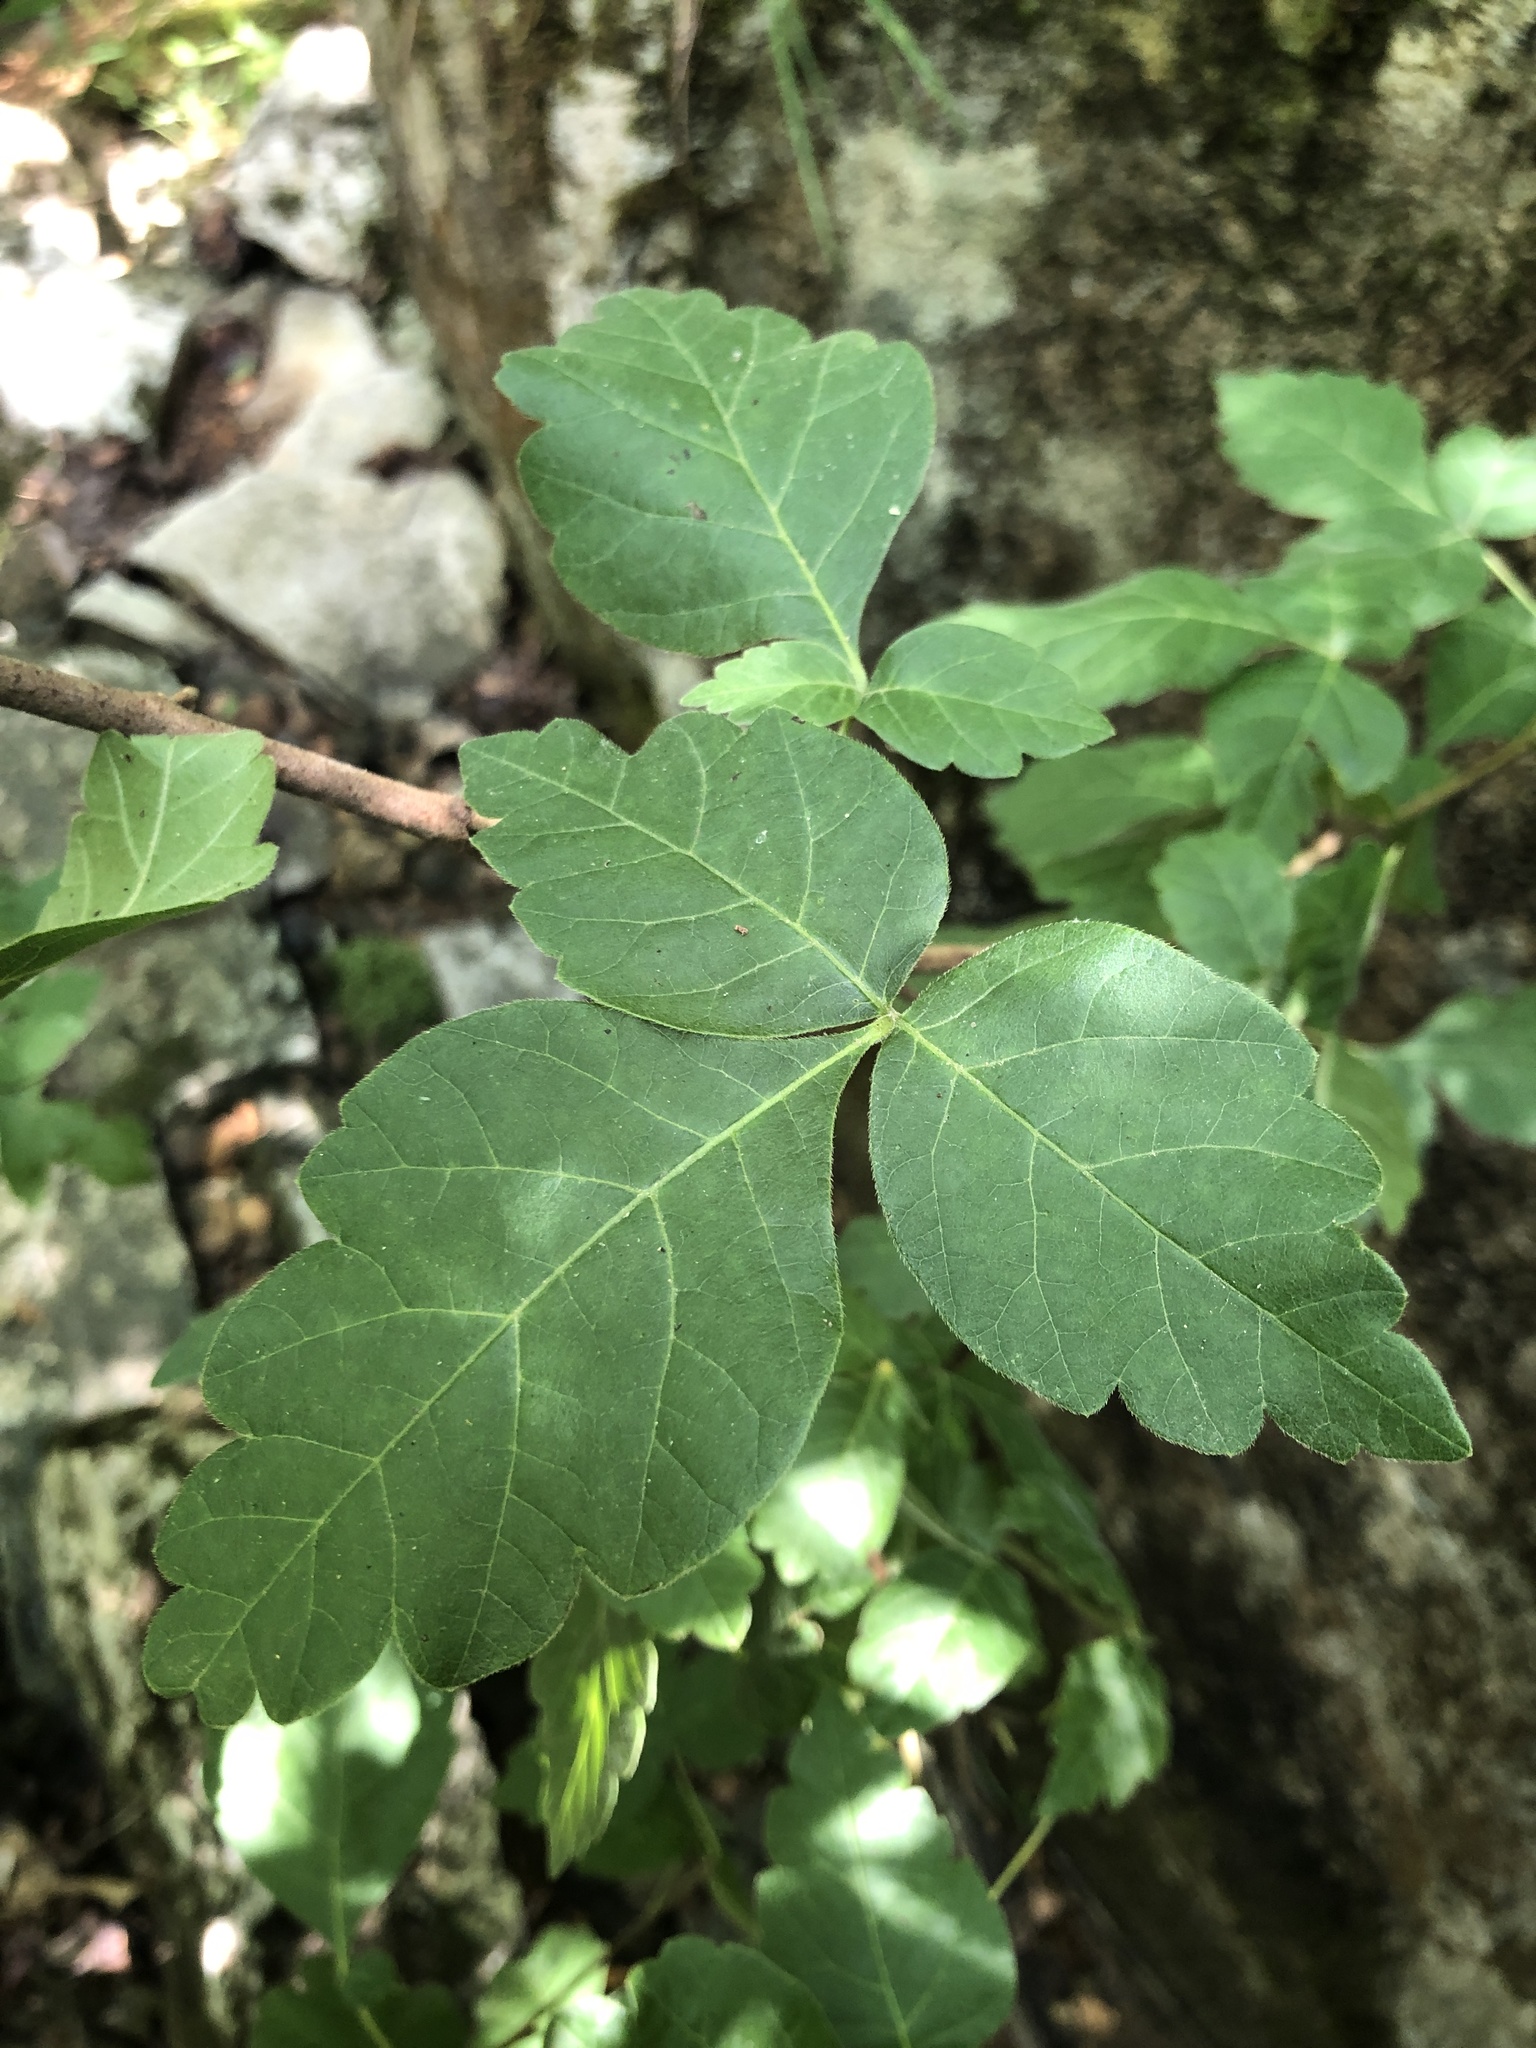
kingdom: Plantae
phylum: Tracheophyta
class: Magnoliopsida
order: Sapindales
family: Anacardiaceae
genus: Rhus
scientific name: Rhus aromatica
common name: Aromatic sumac
